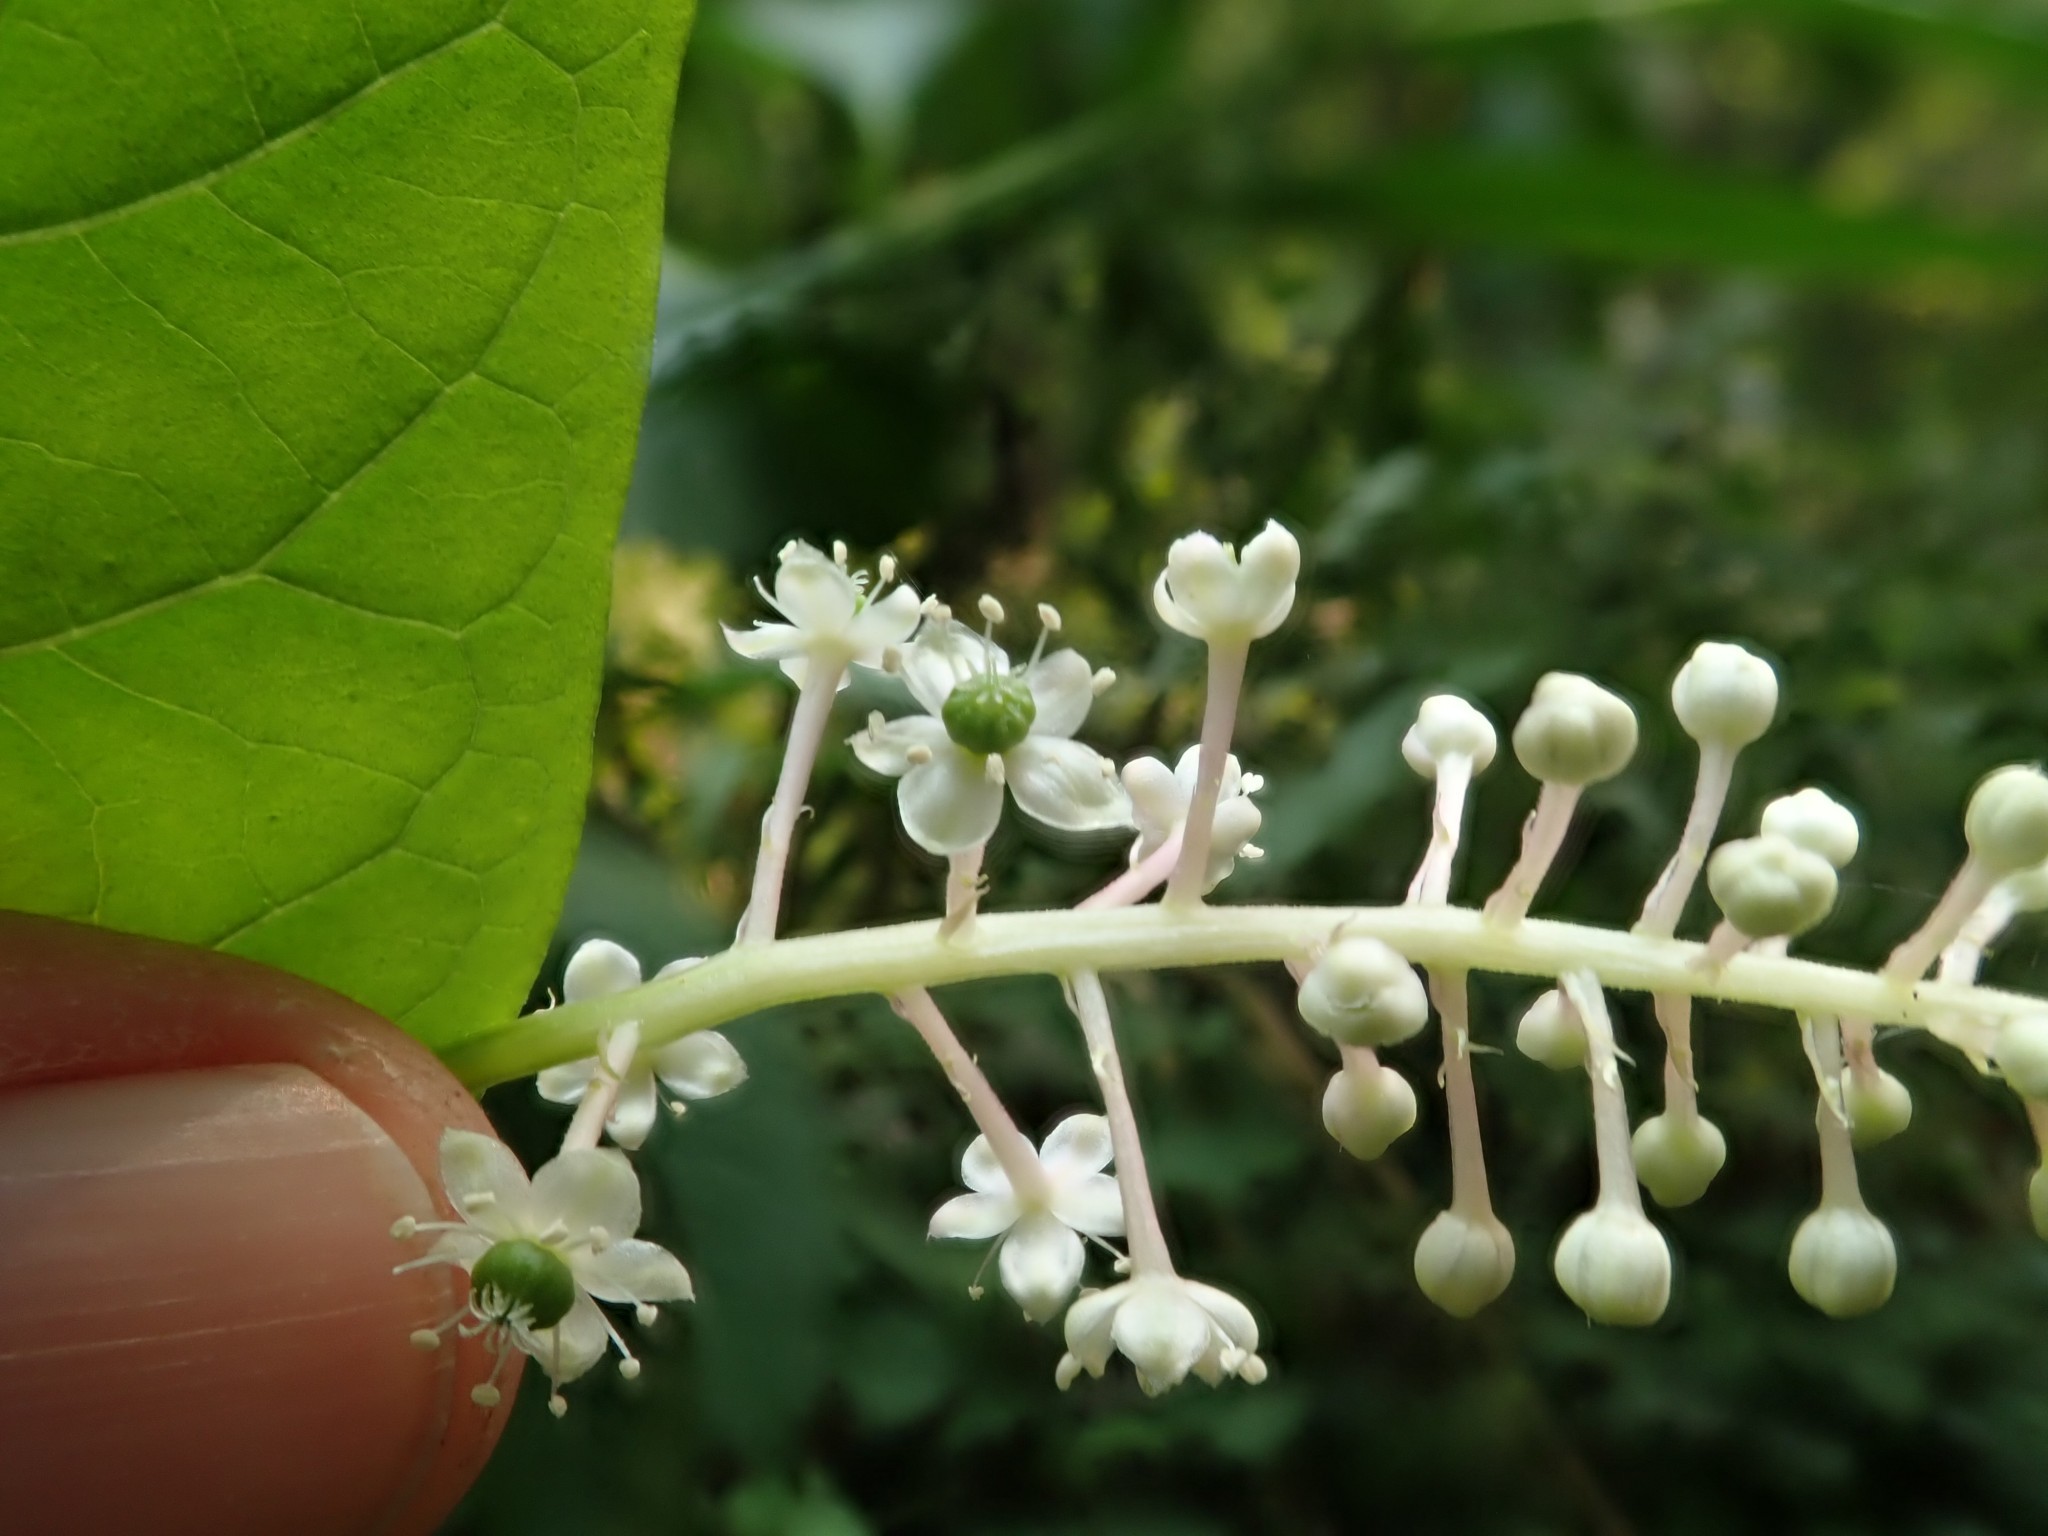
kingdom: Plantae
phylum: Tracheophyta
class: Magnoliopsida
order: Caryophyllales
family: Phytolaccaceae
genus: Phytolacca
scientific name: Phytolacca americana
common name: American pokeweed
